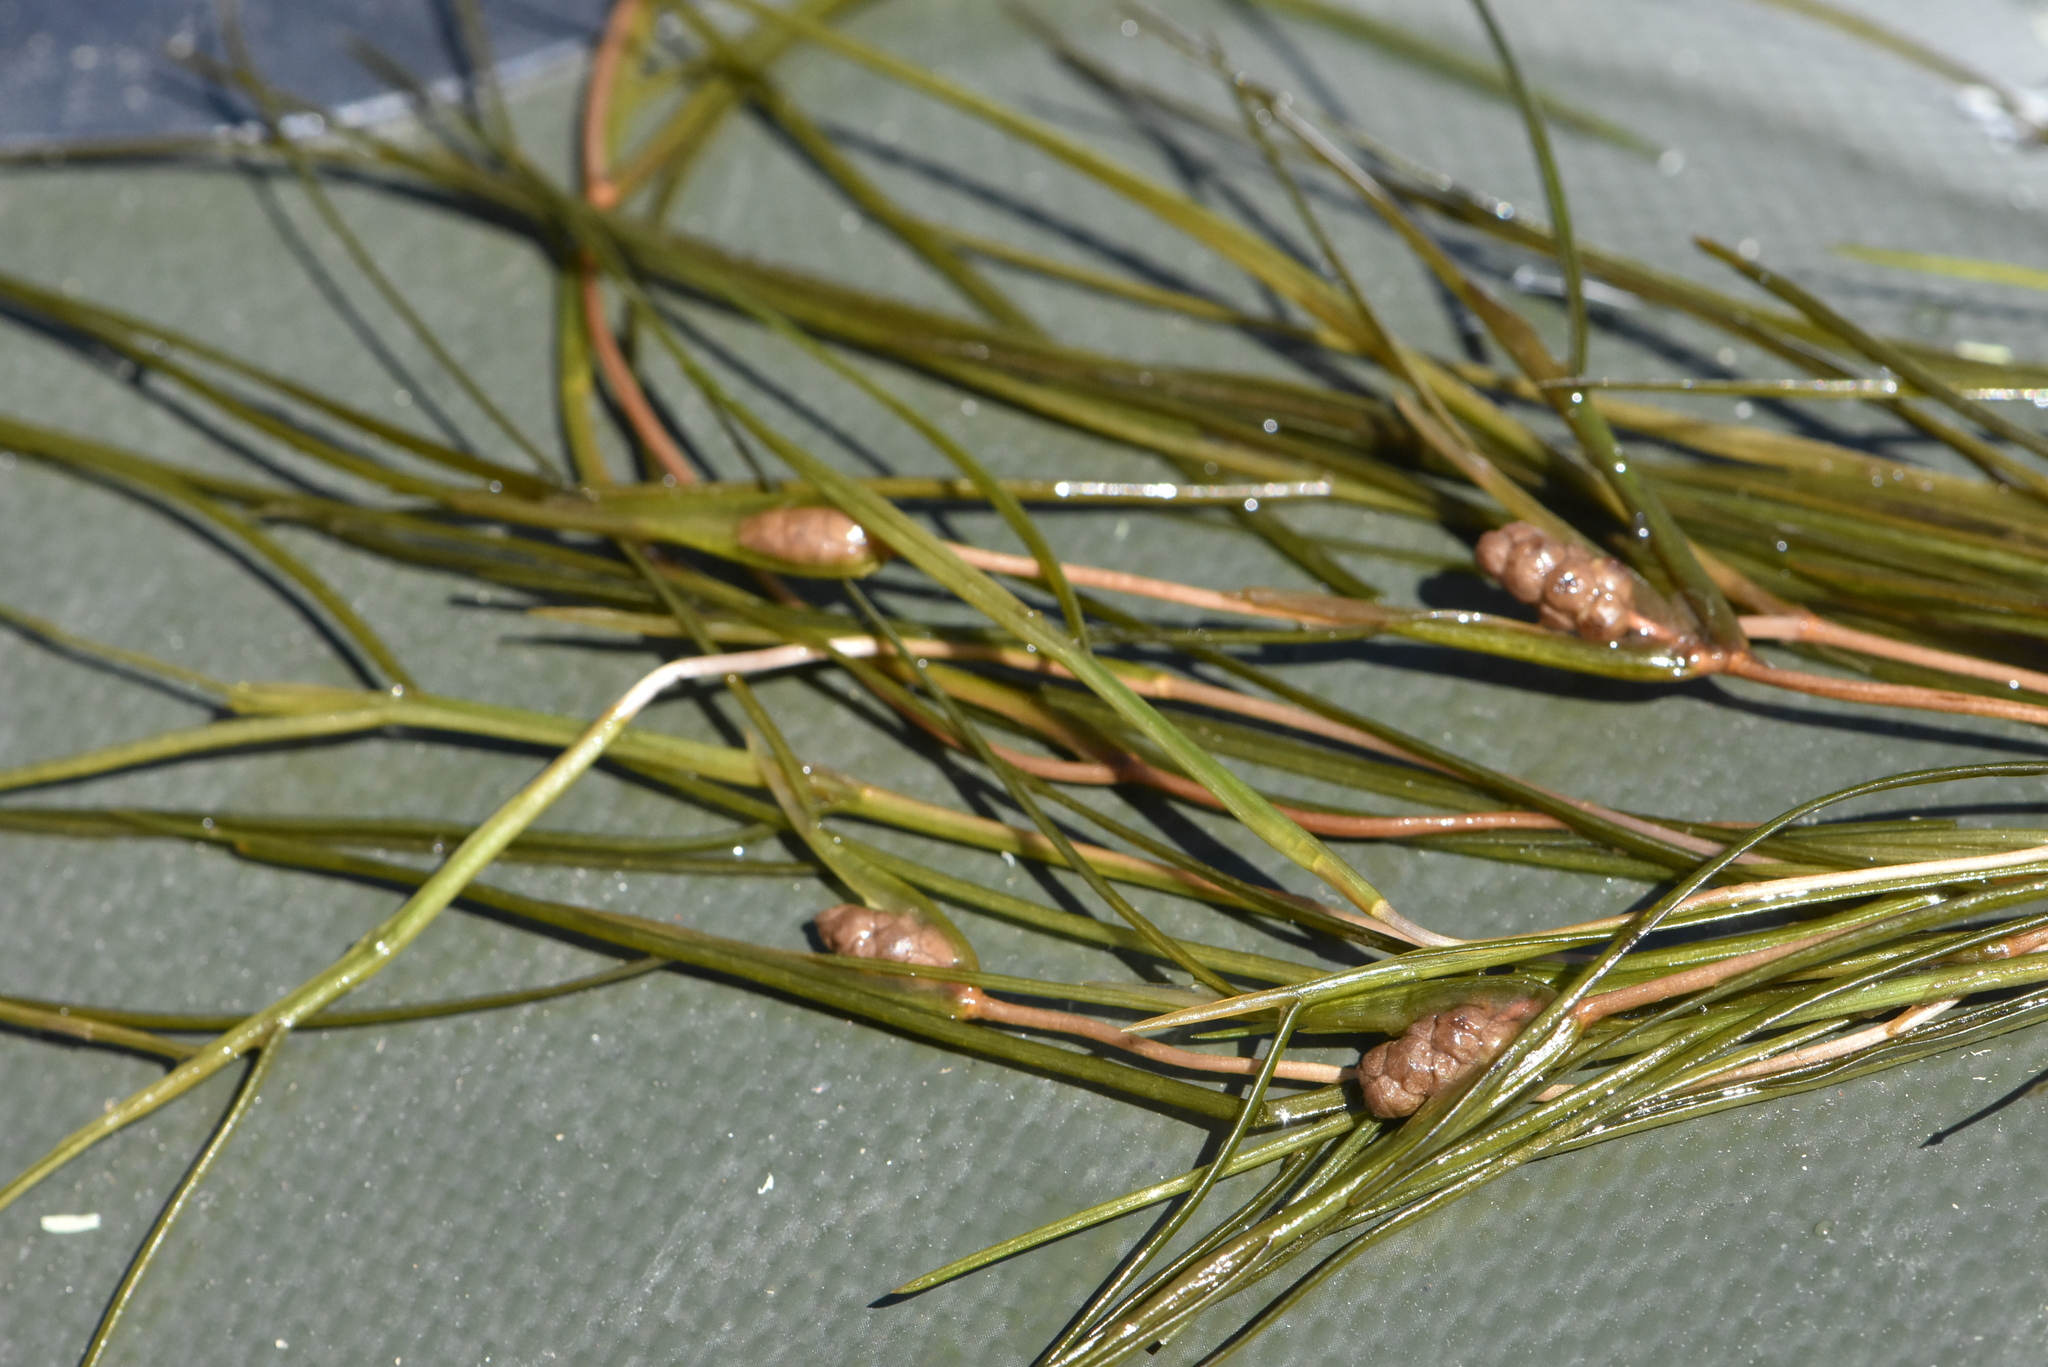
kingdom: Plantae
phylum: Tracheophyta
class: Liliopsida
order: Alismatales
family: Potamogetonaceae
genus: Stuckenia
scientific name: Stuckenia pectinata
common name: Sago pondweed
